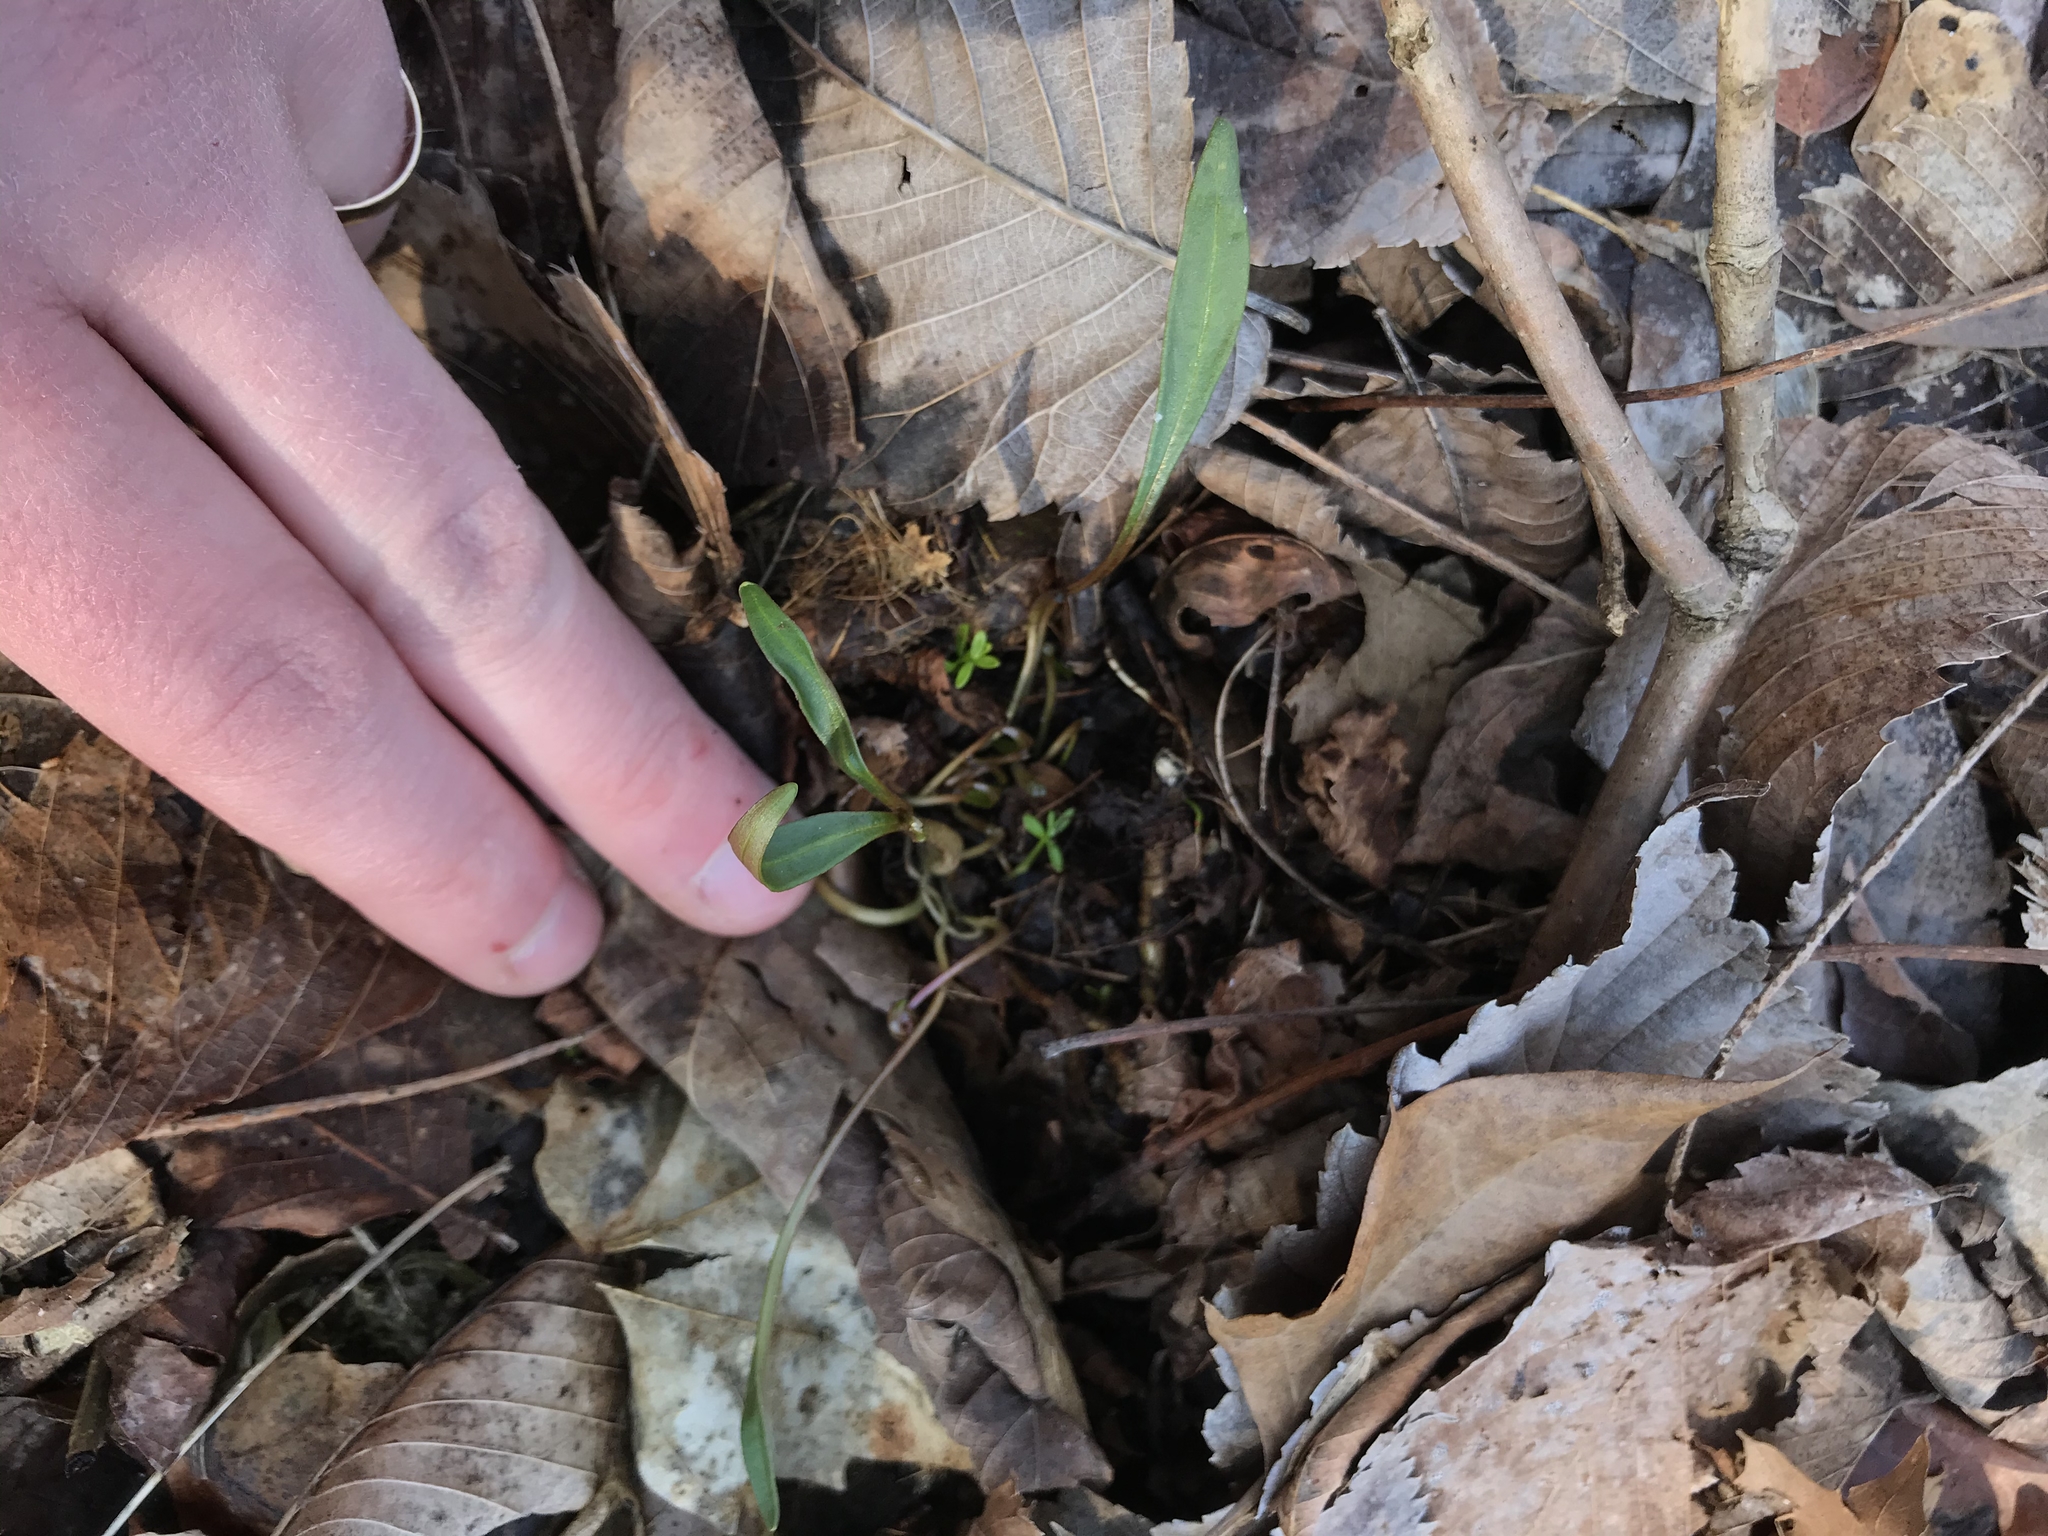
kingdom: Plantae
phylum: Tracheophyta
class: Magnoliopsida
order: Caryophyllales
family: Montiaceae
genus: Claytonia
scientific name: Claytonia virginica
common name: Virginia springbeauty
